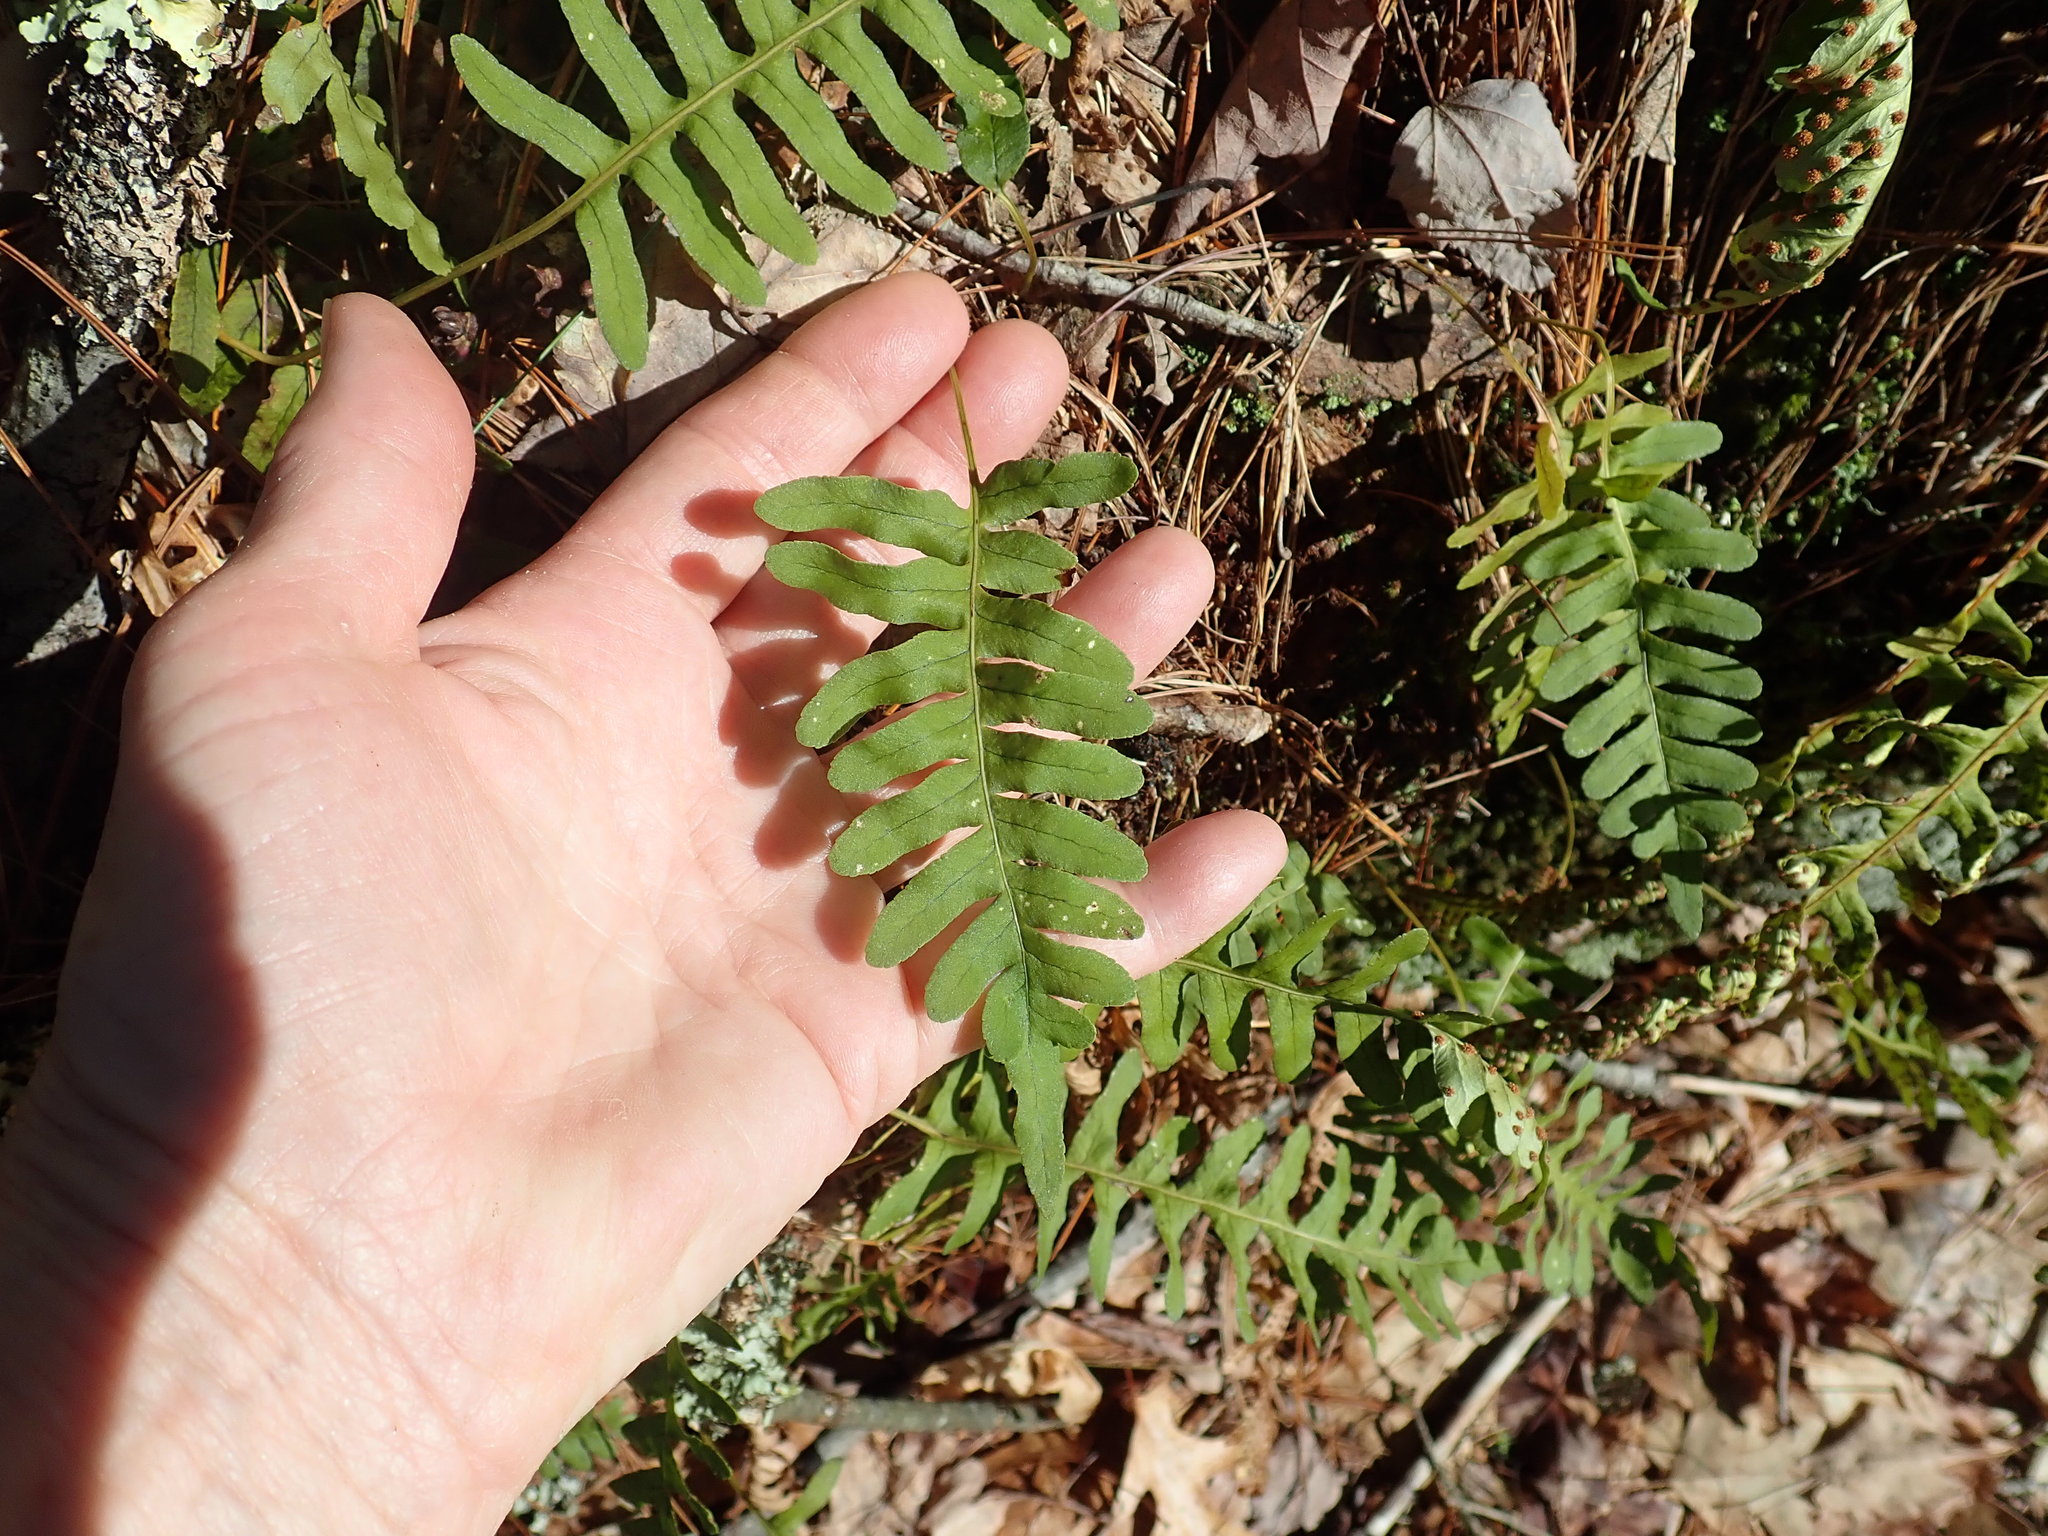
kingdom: Plantae
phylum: Tracheophyta
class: Polypodiopsida
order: Polypodiales
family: Polypodiaceae
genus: Polypodium
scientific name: Polypodium
